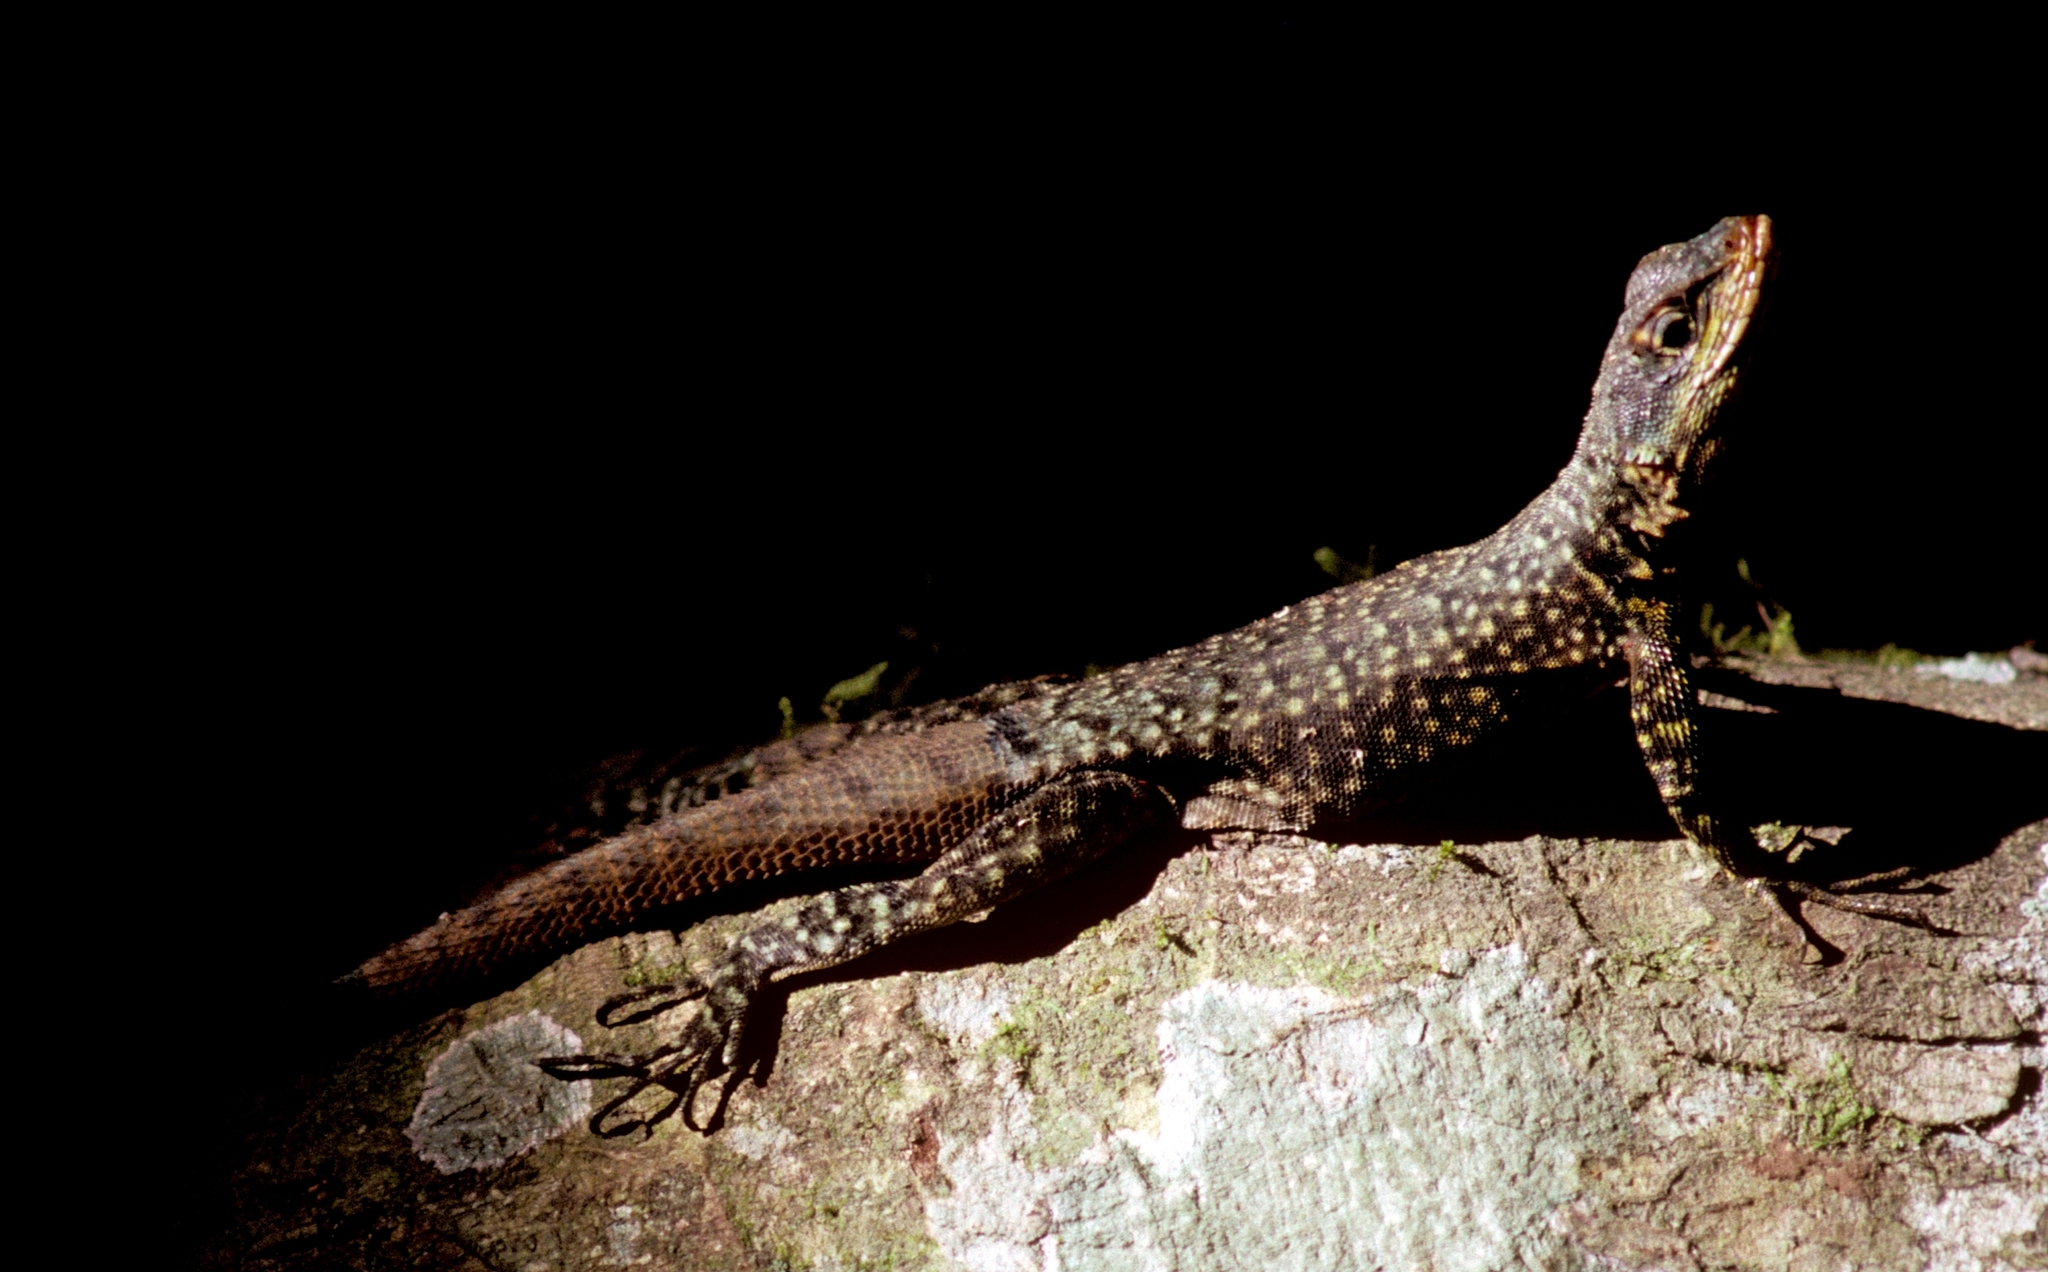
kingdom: Animalia
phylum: Chordata
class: Squamata
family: Tropiduridae
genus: Tropidurus
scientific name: Tropidurus etheridgei
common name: Etheridge's lava lizard
